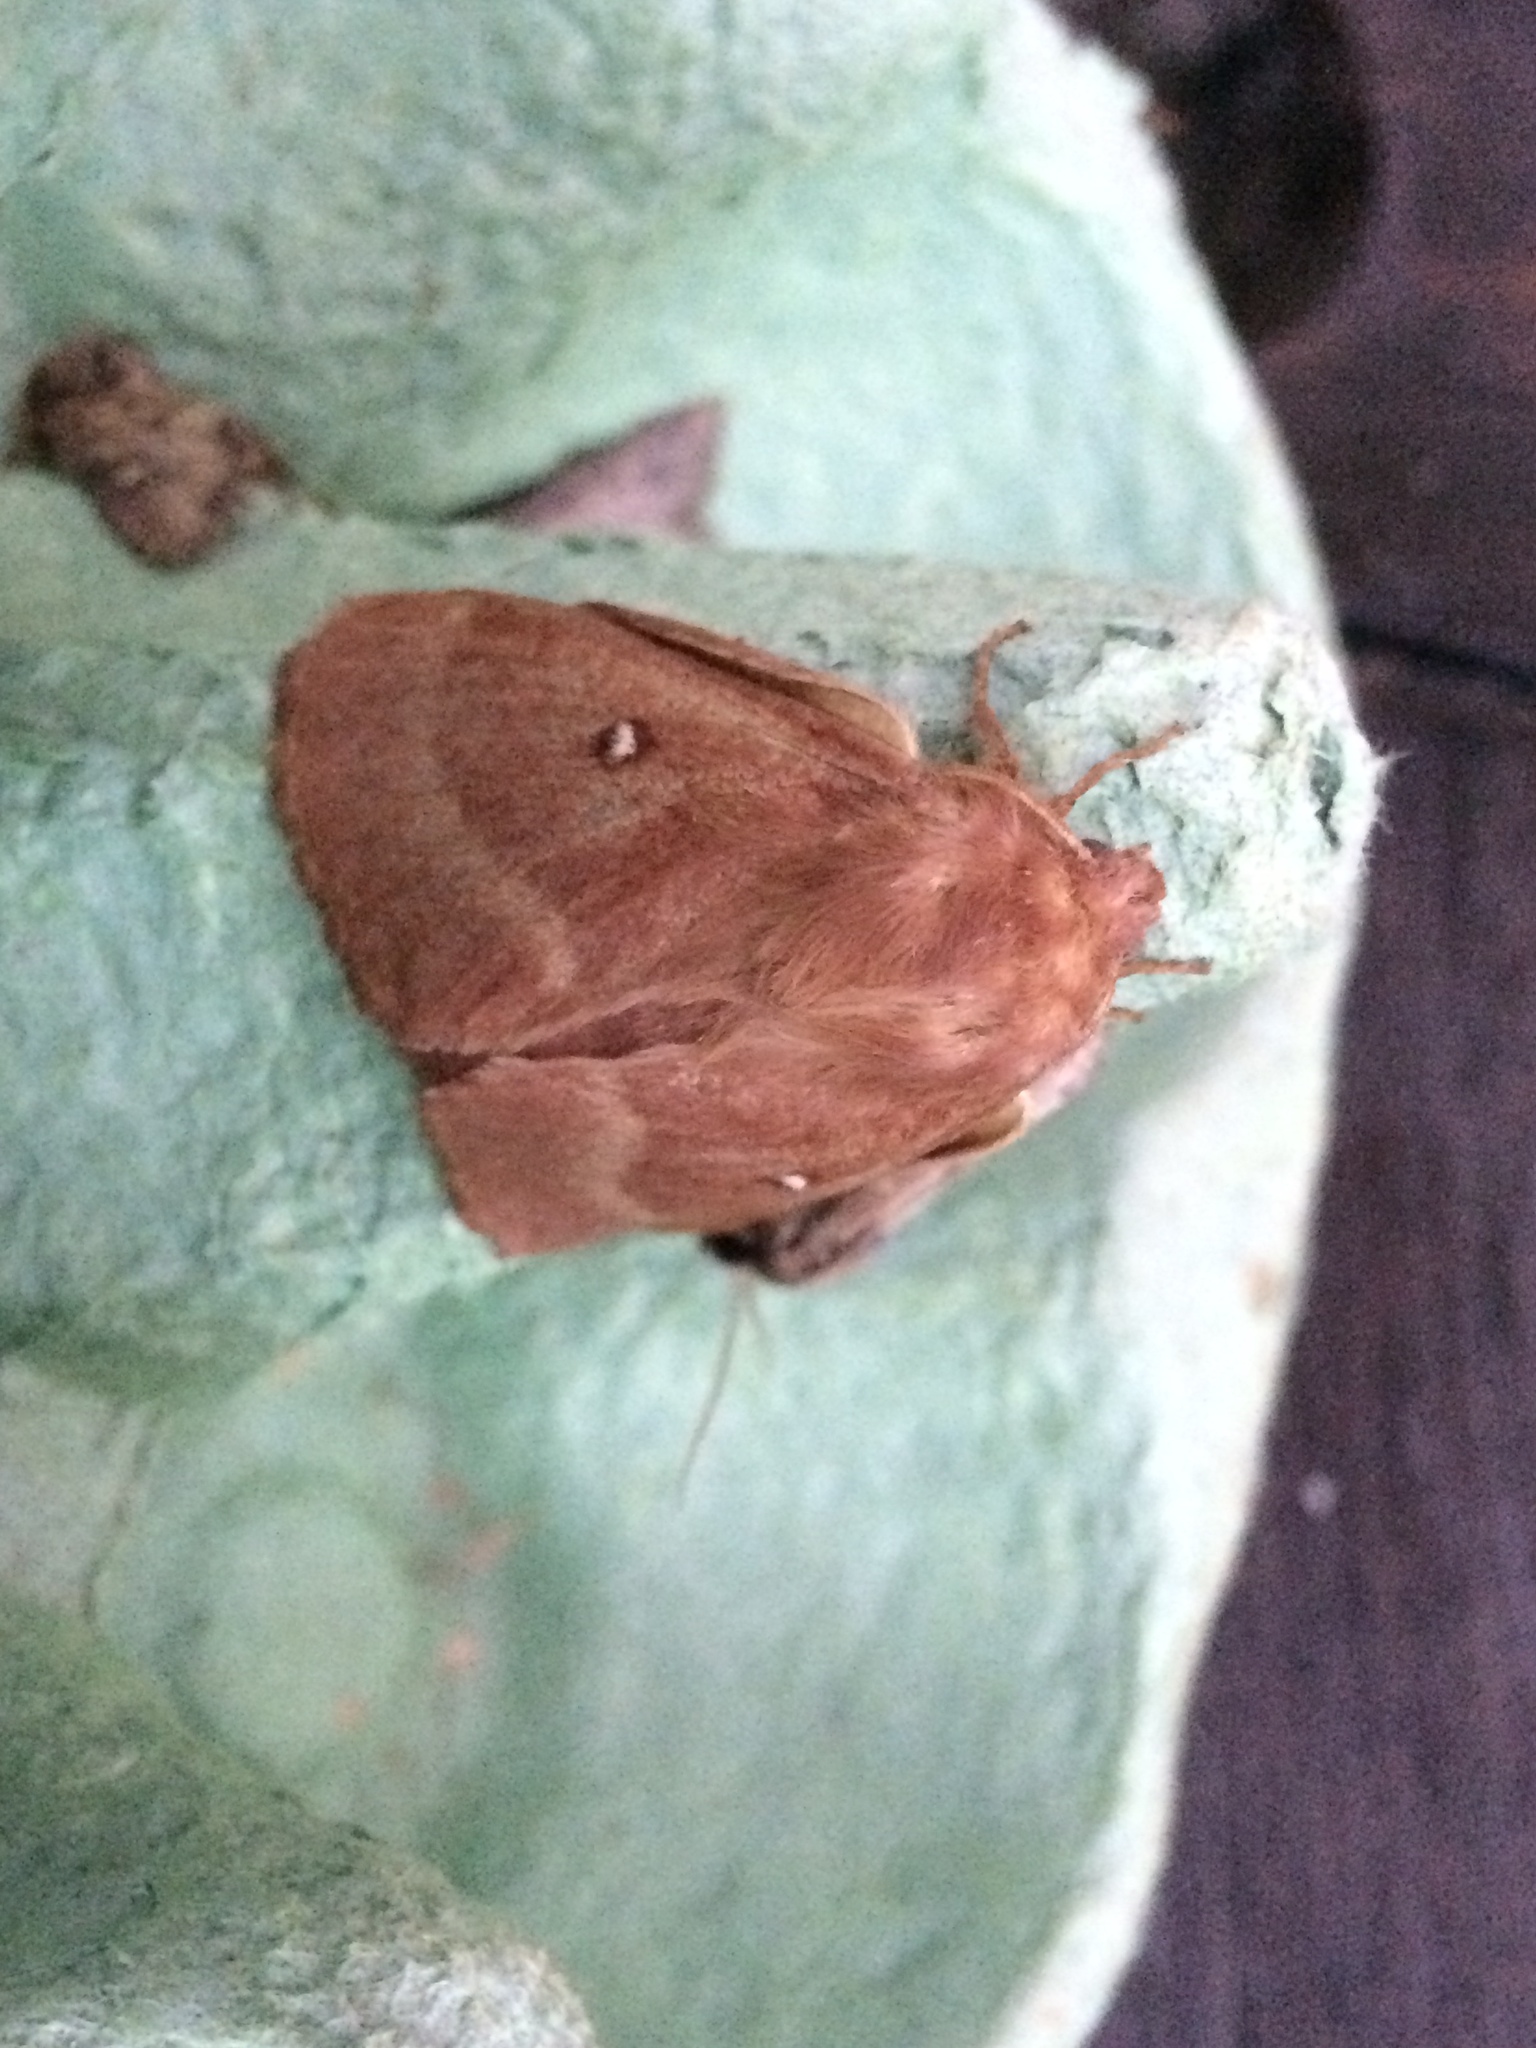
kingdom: Animalia
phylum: Arthropoda
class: Insecta
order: Lepidoptera
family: Lasiocampidae
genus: Lasiocampa
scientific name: Lasiocampa trifolii
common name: Grass eggar
